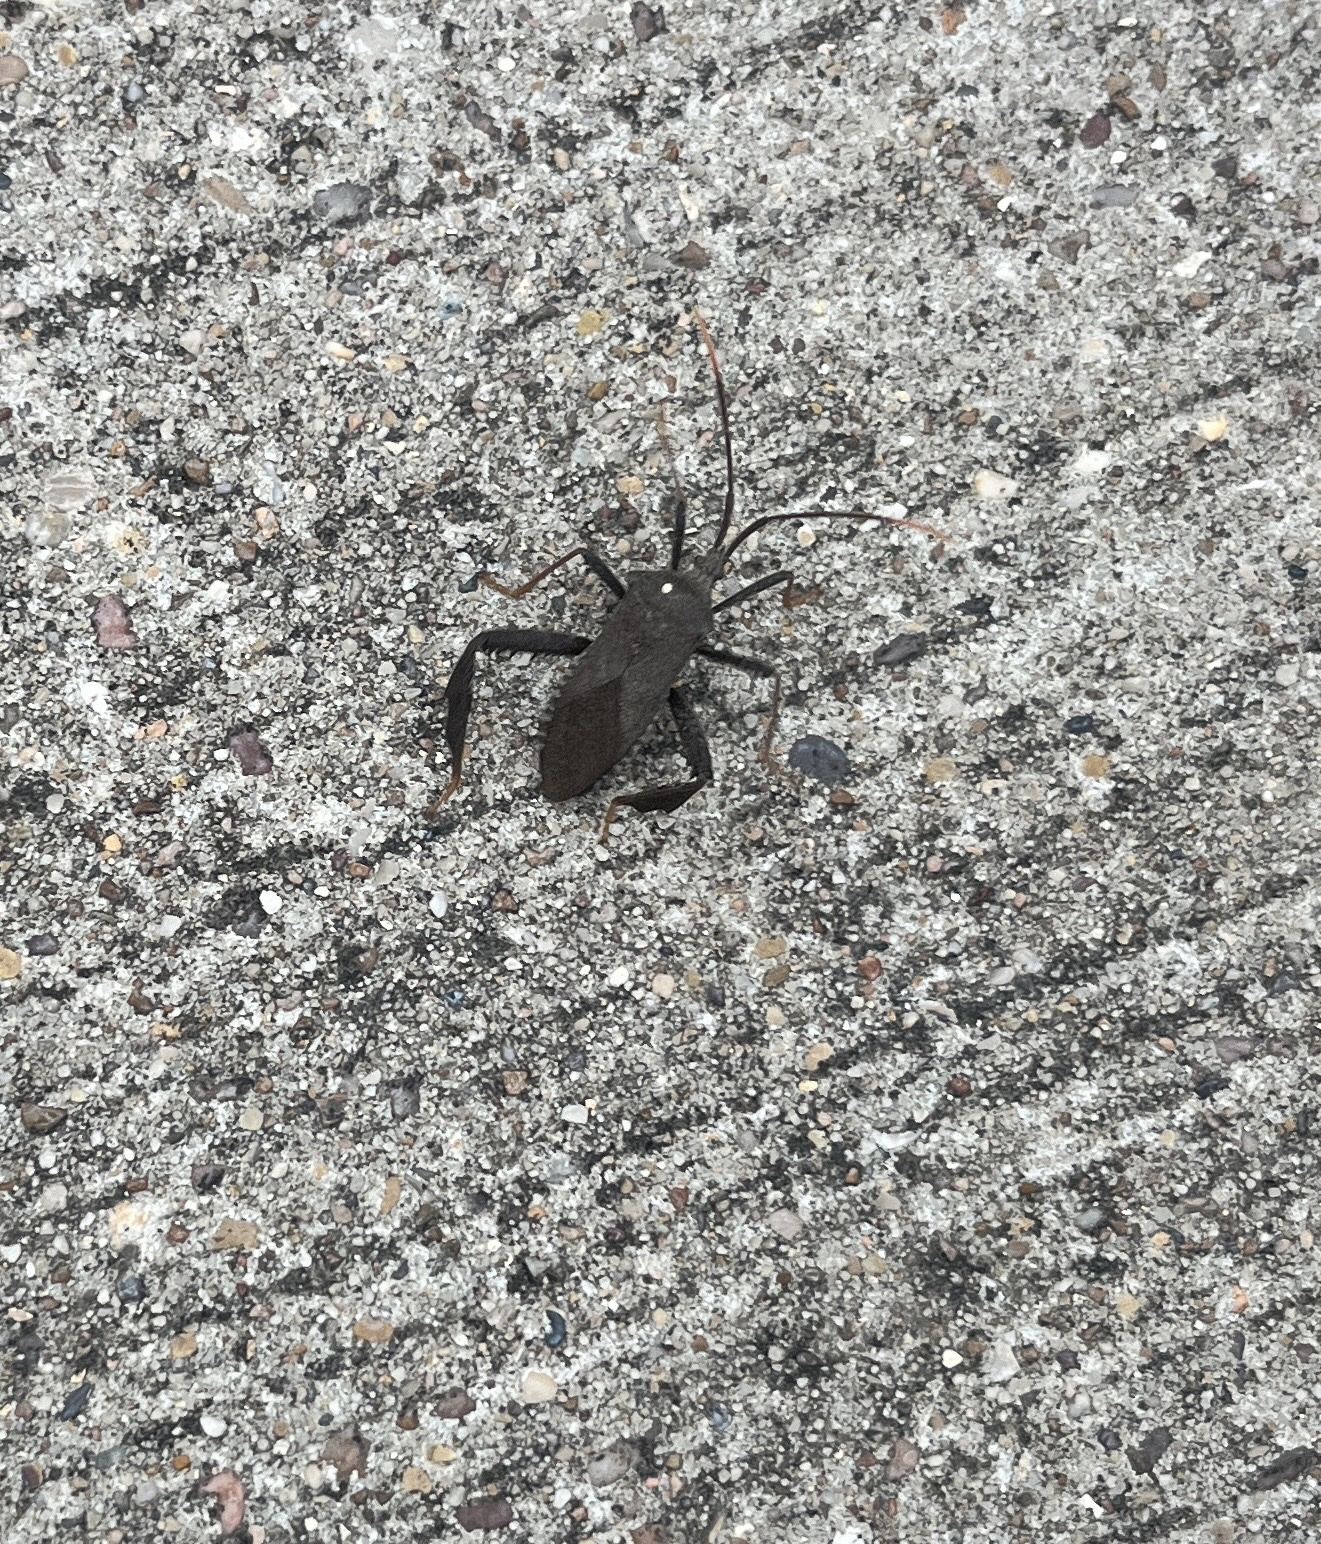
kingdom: Animalia
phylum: Arthropoda
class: Insecta
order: Hemiptera
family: Coreidae
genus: Acanthocephala
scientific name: Acanthocephala terminalis
